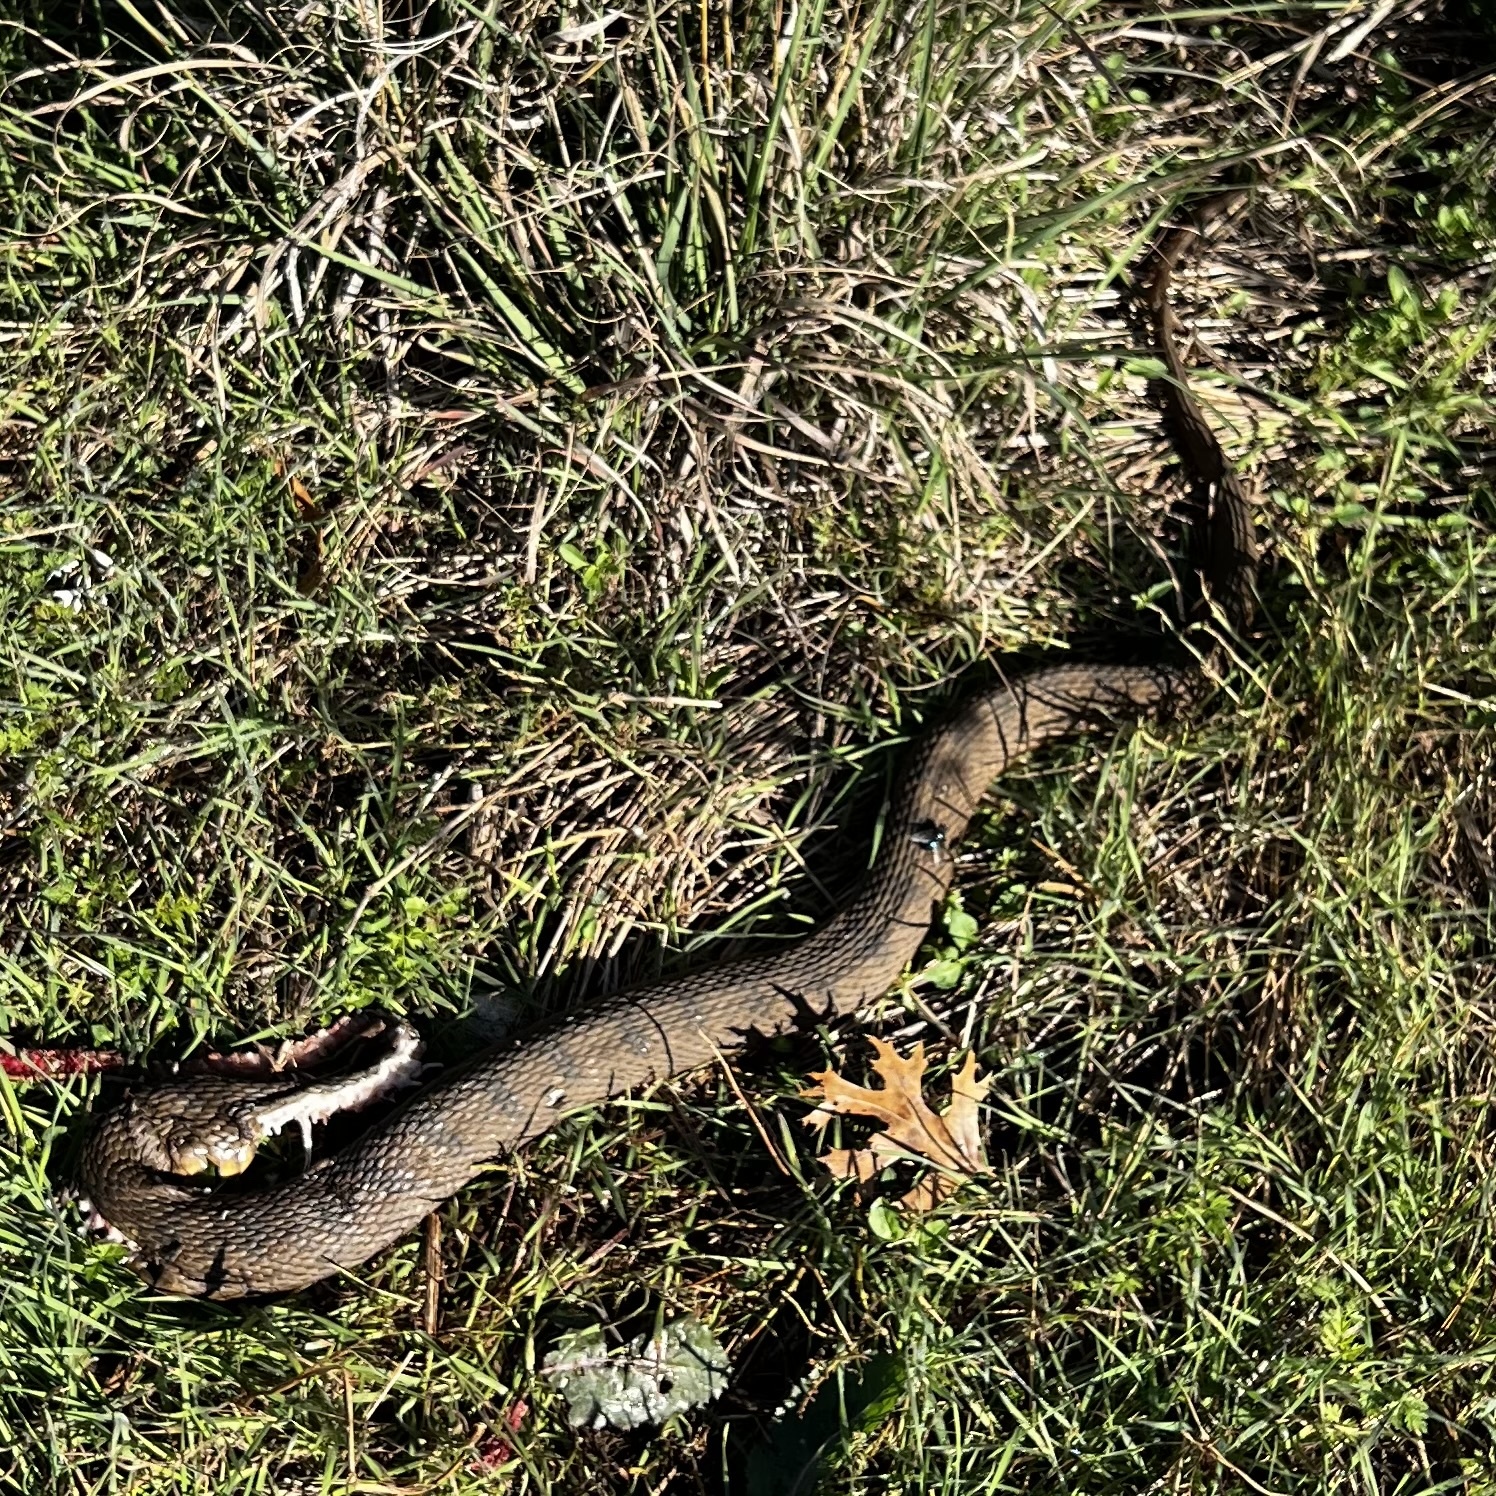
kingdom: Animalia
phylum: Chordata
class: Squamata
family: Colubridae
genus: Nerodia
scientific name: Nerodia erythrogaster
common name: Plainbelly water snake
